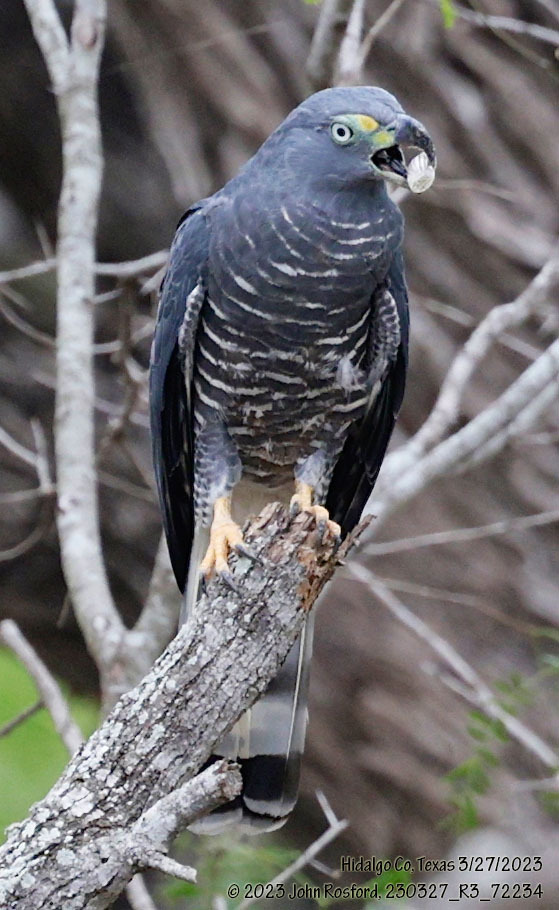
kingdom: Animalia
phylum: Chordata
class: Aves
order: Accipitriformes
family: Accipitridae
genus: Chondrohierax
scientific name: Chondrohierax uncinatus
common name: Hook-billed kite
